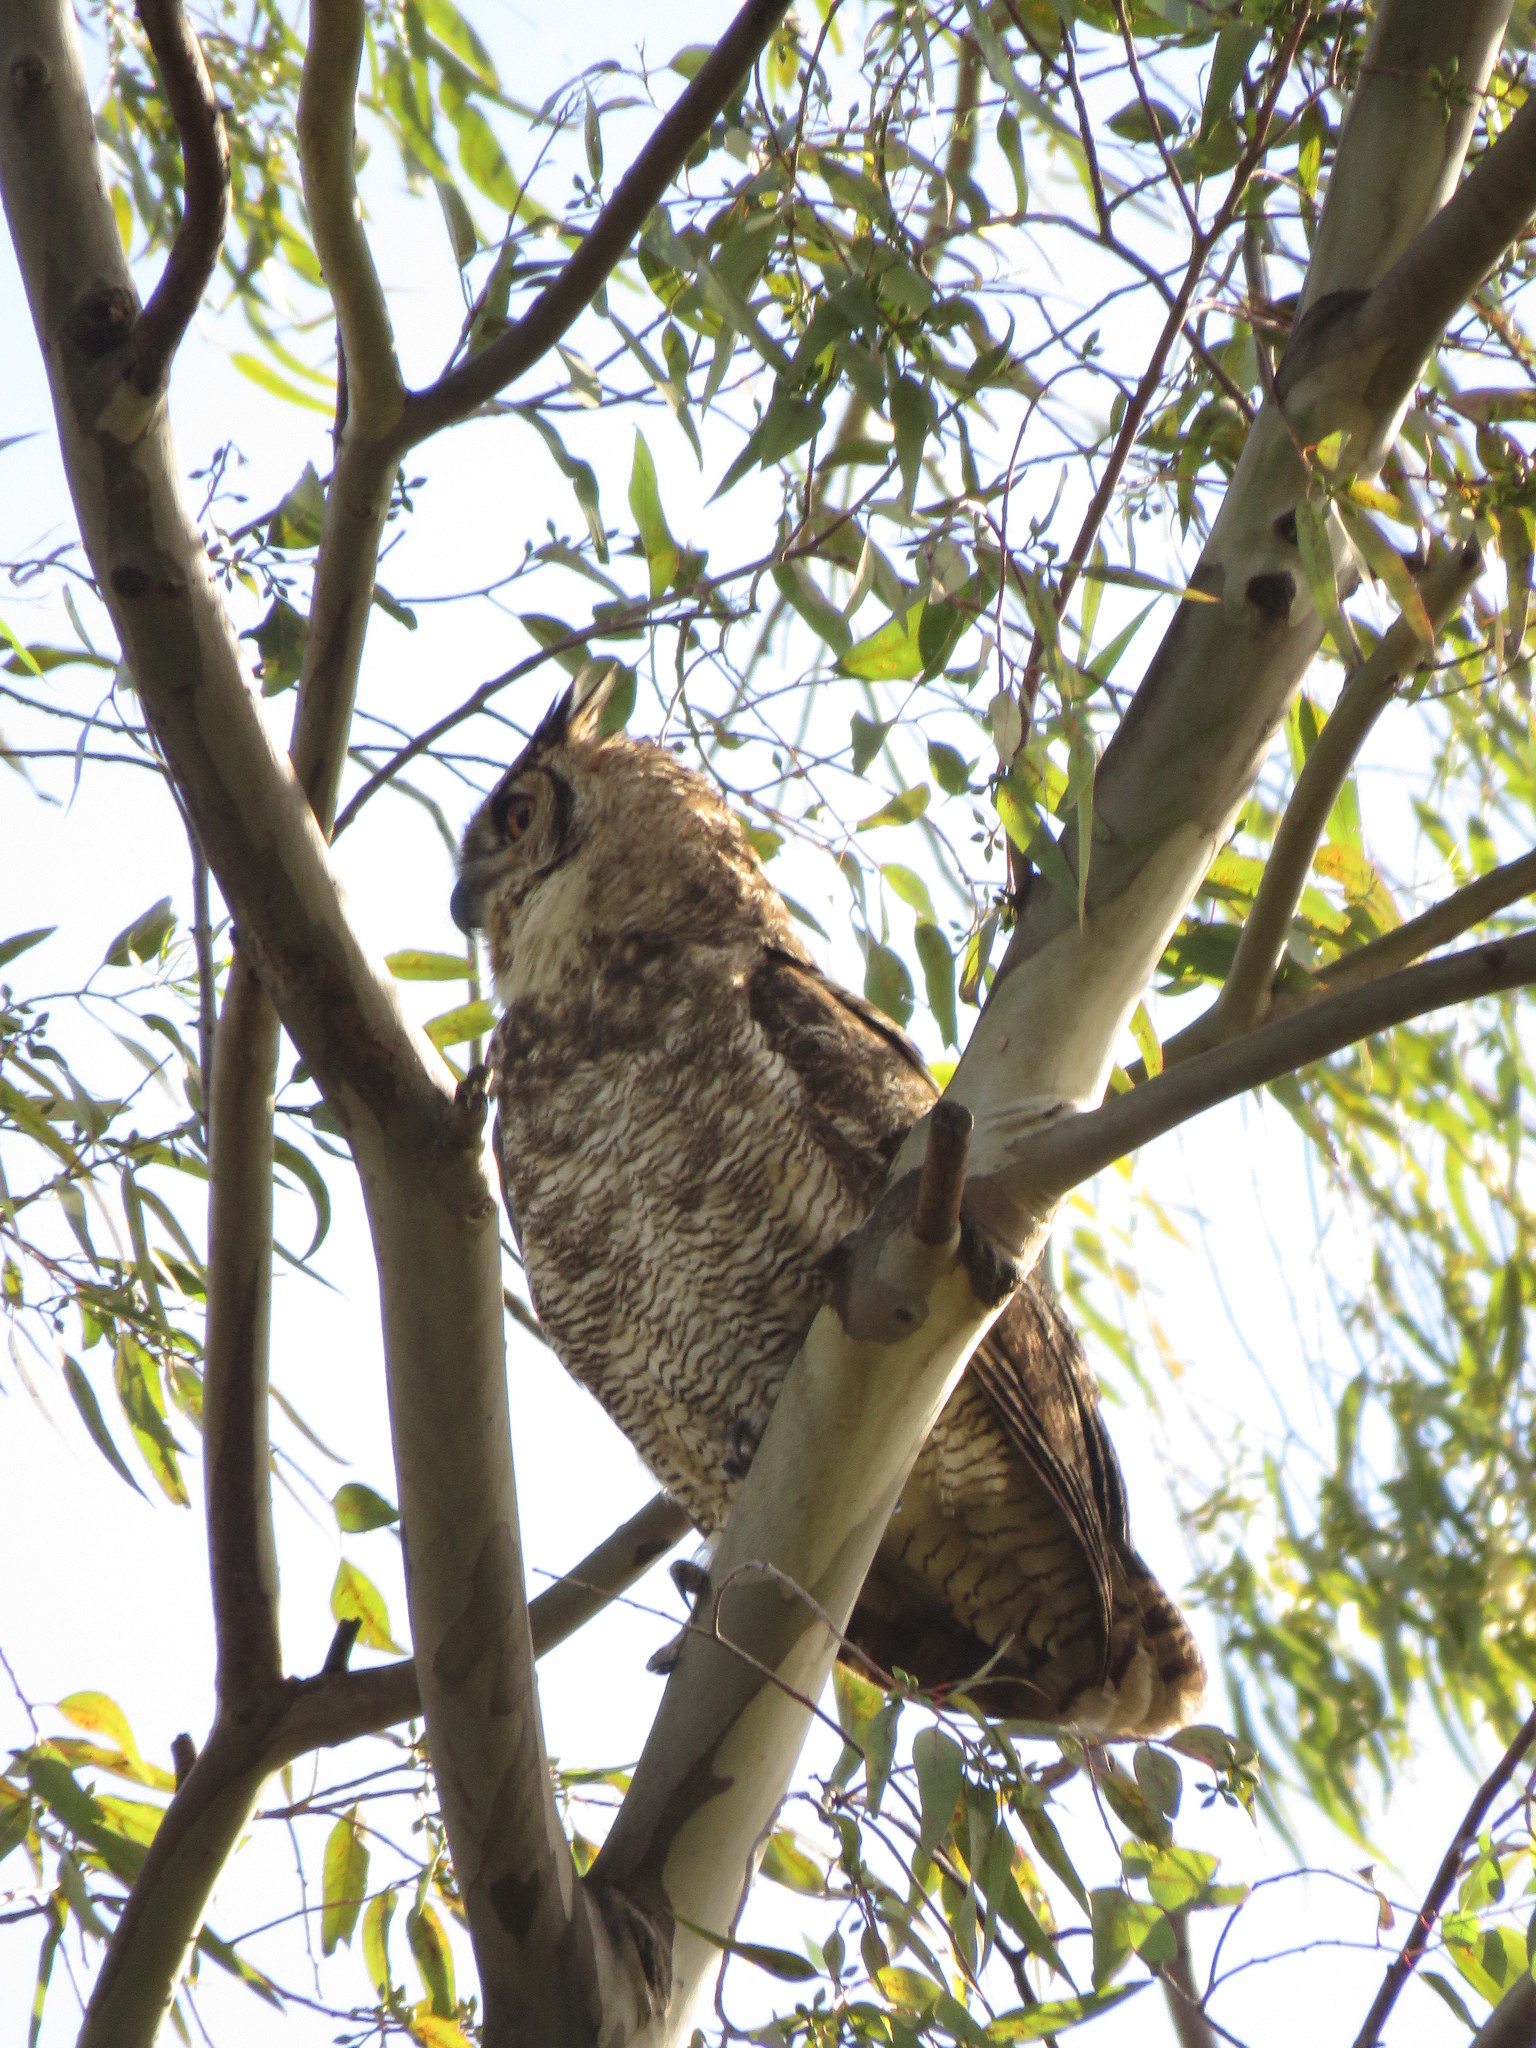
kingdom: Animalia
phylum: Chordata
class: Aves
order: Strigiformes
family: Strigidae
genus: Bubo
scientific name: Bubo virginianus
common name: Great horned owl
